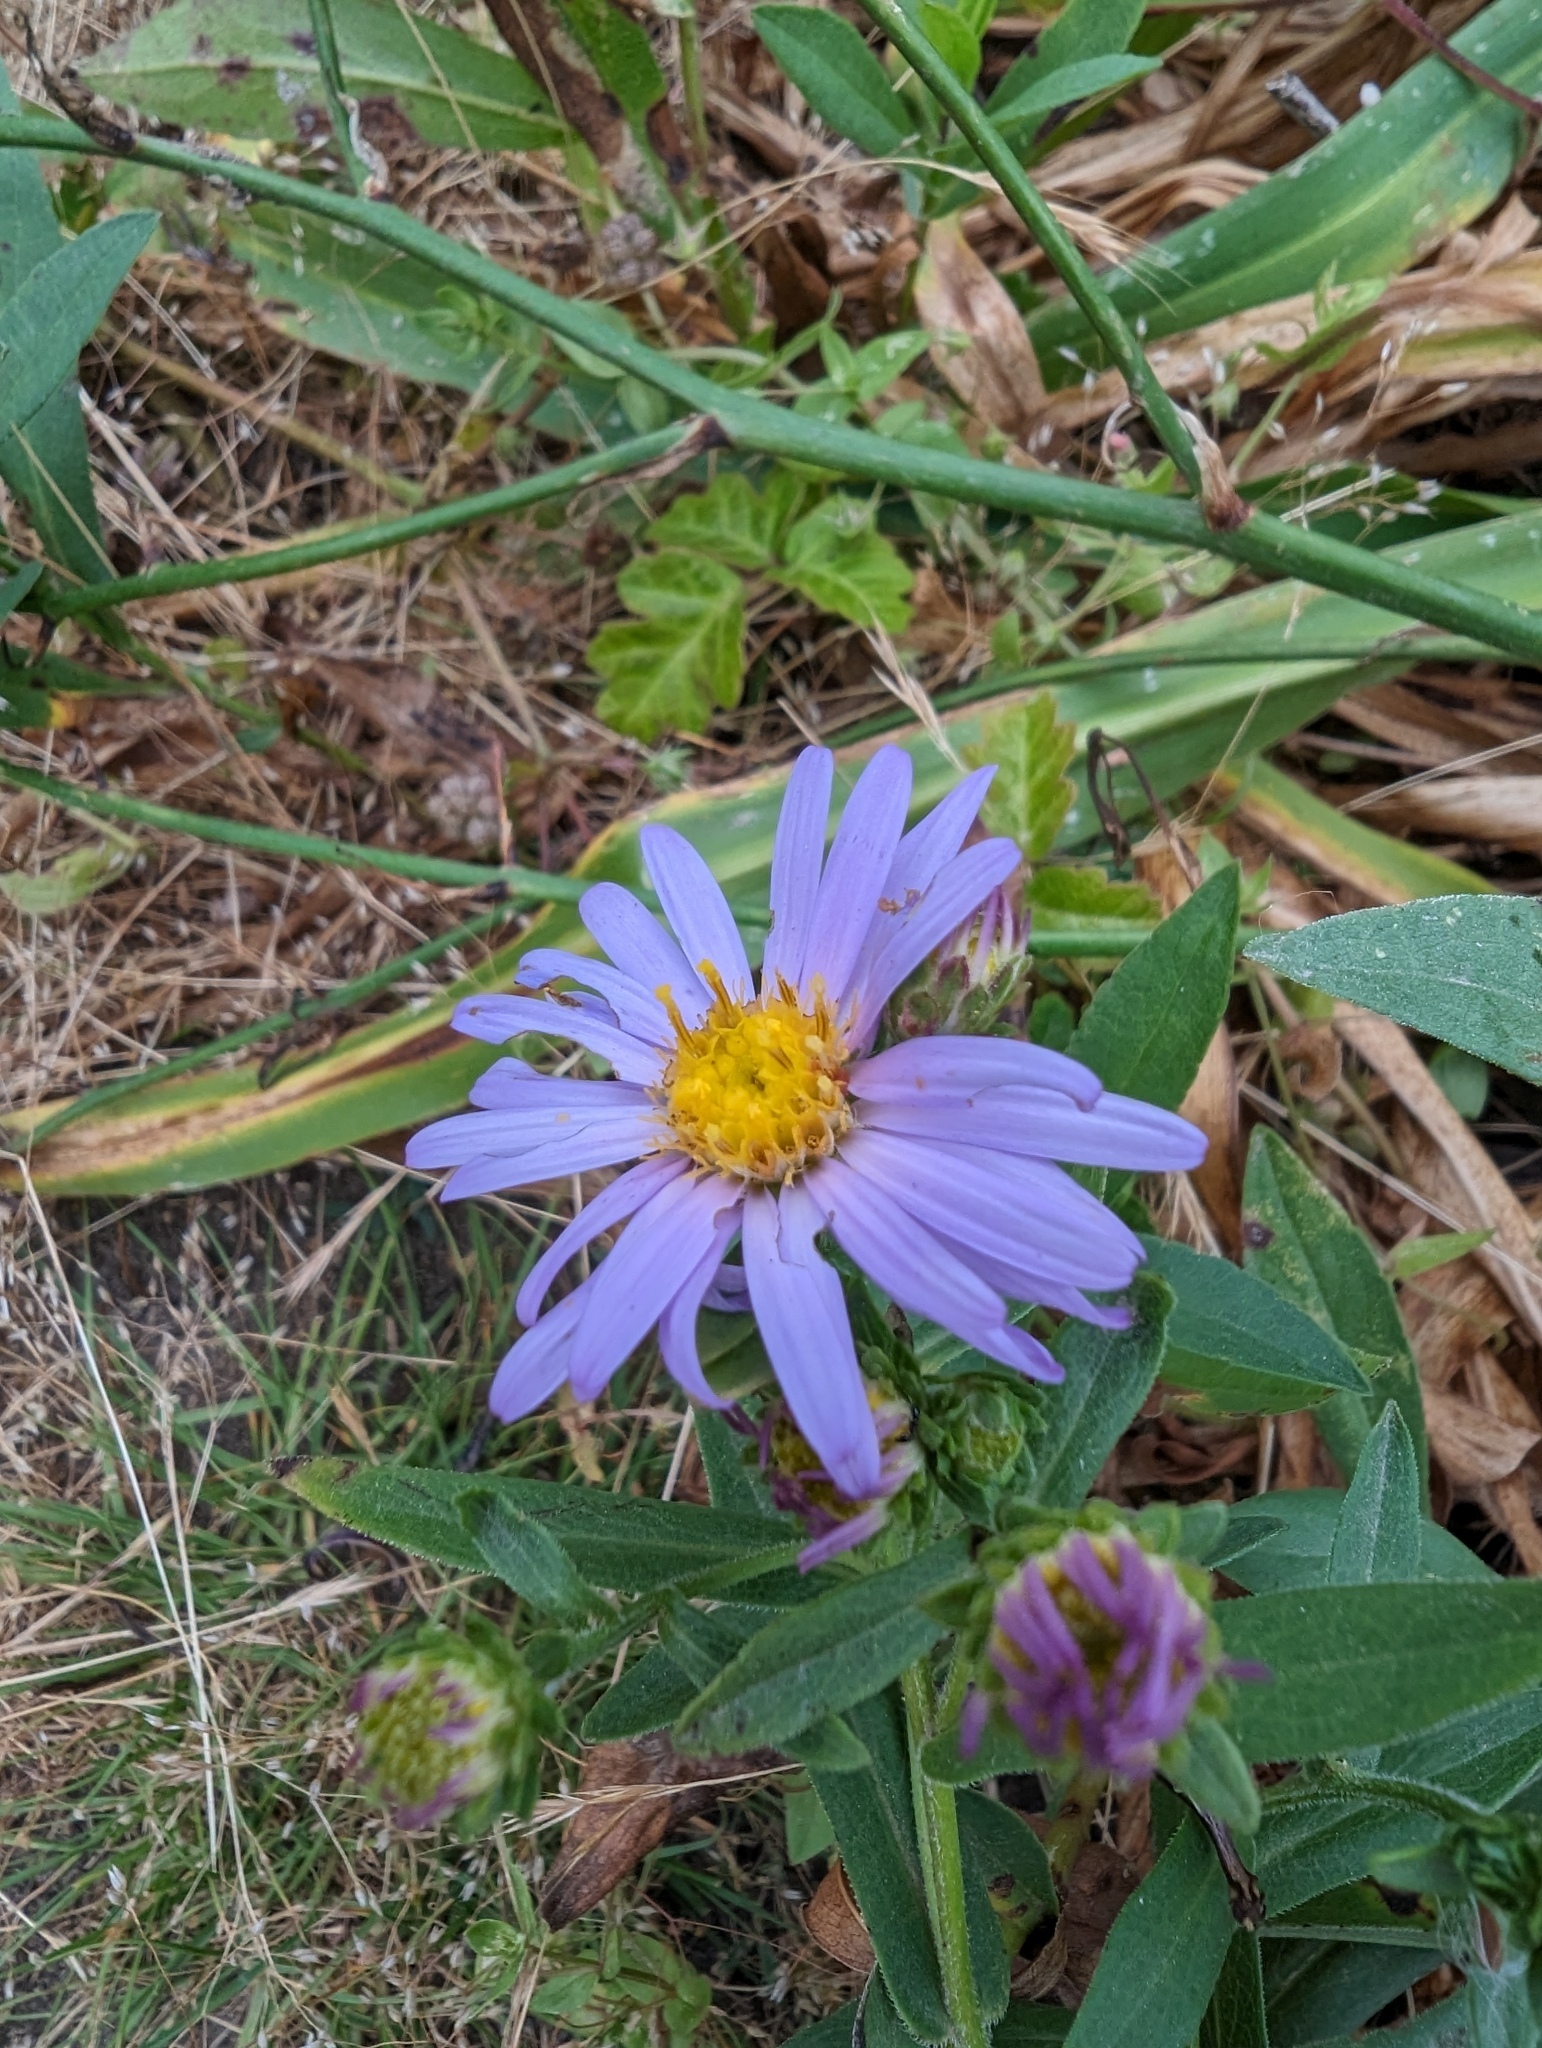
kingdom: Plantae
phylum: Tracheophyta
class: Magnoliopsida
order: Asterales
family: Asteraceae
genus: Symphyotrichum
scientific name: Symphyotrichum chilense
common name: Pacific aster
